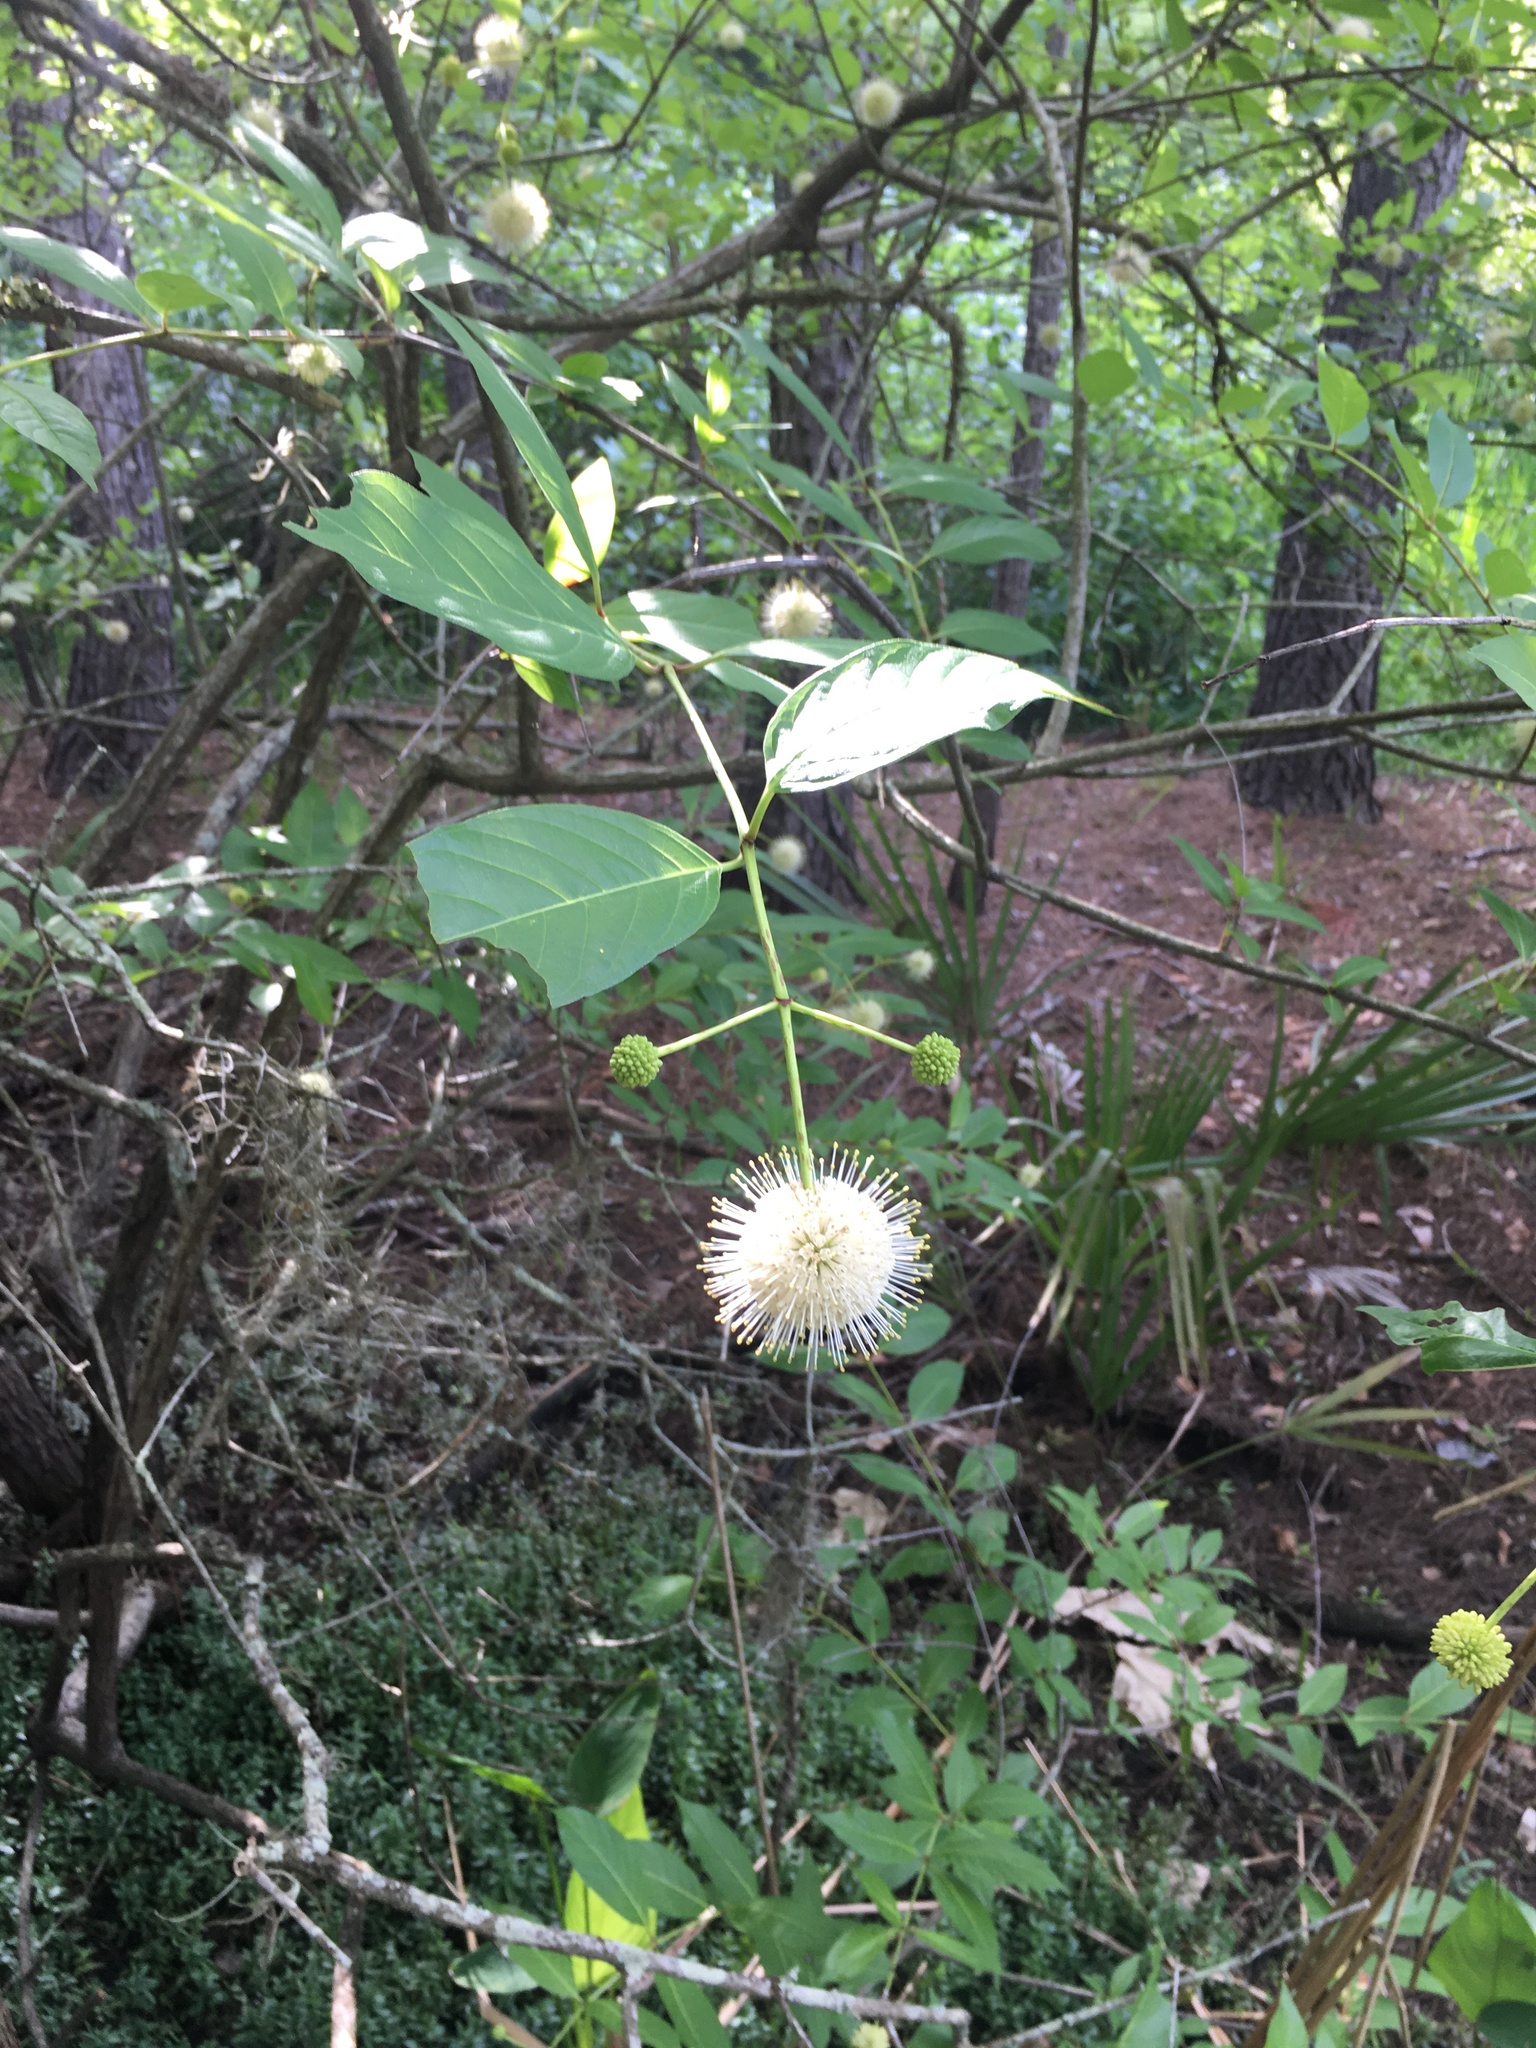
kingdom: Plantae
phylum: Tracheophyta
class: Magnoliopsida
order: Gentianales
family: Rubiaceae
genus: Cephalanthus
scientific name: Cephalanthus occidentalis
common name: Button-willow
